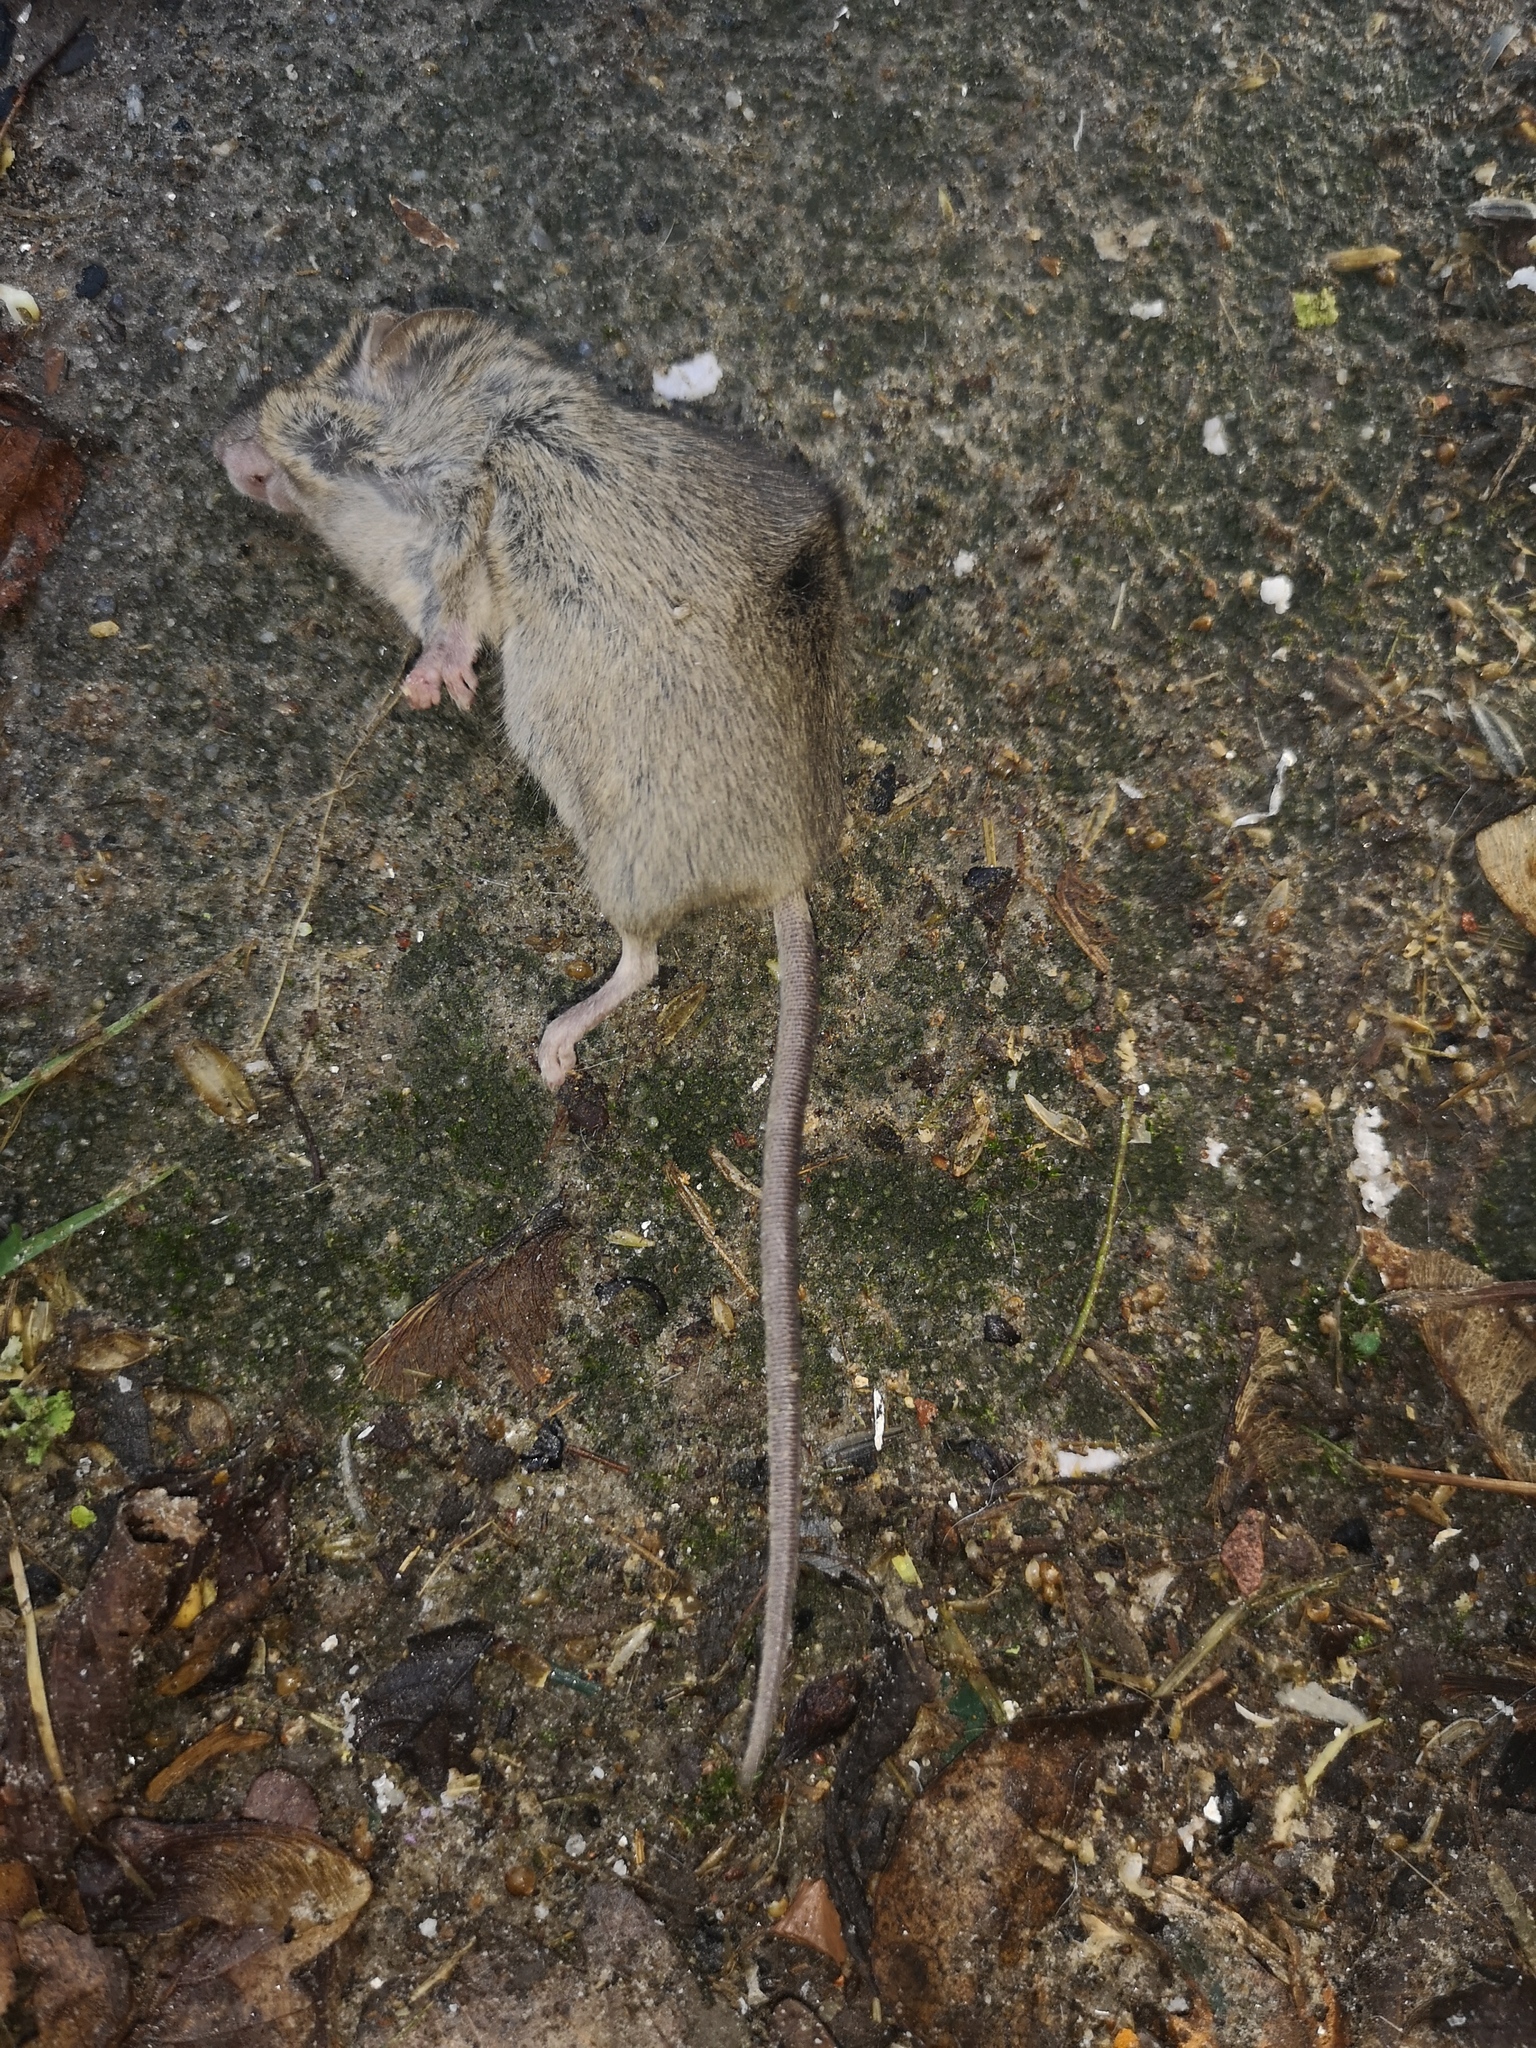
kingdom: Animalia
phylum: Chordata
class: Mammalia
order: Rodentia
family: Muridae
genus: Mus
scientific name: Mus musculus
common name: House mouse
